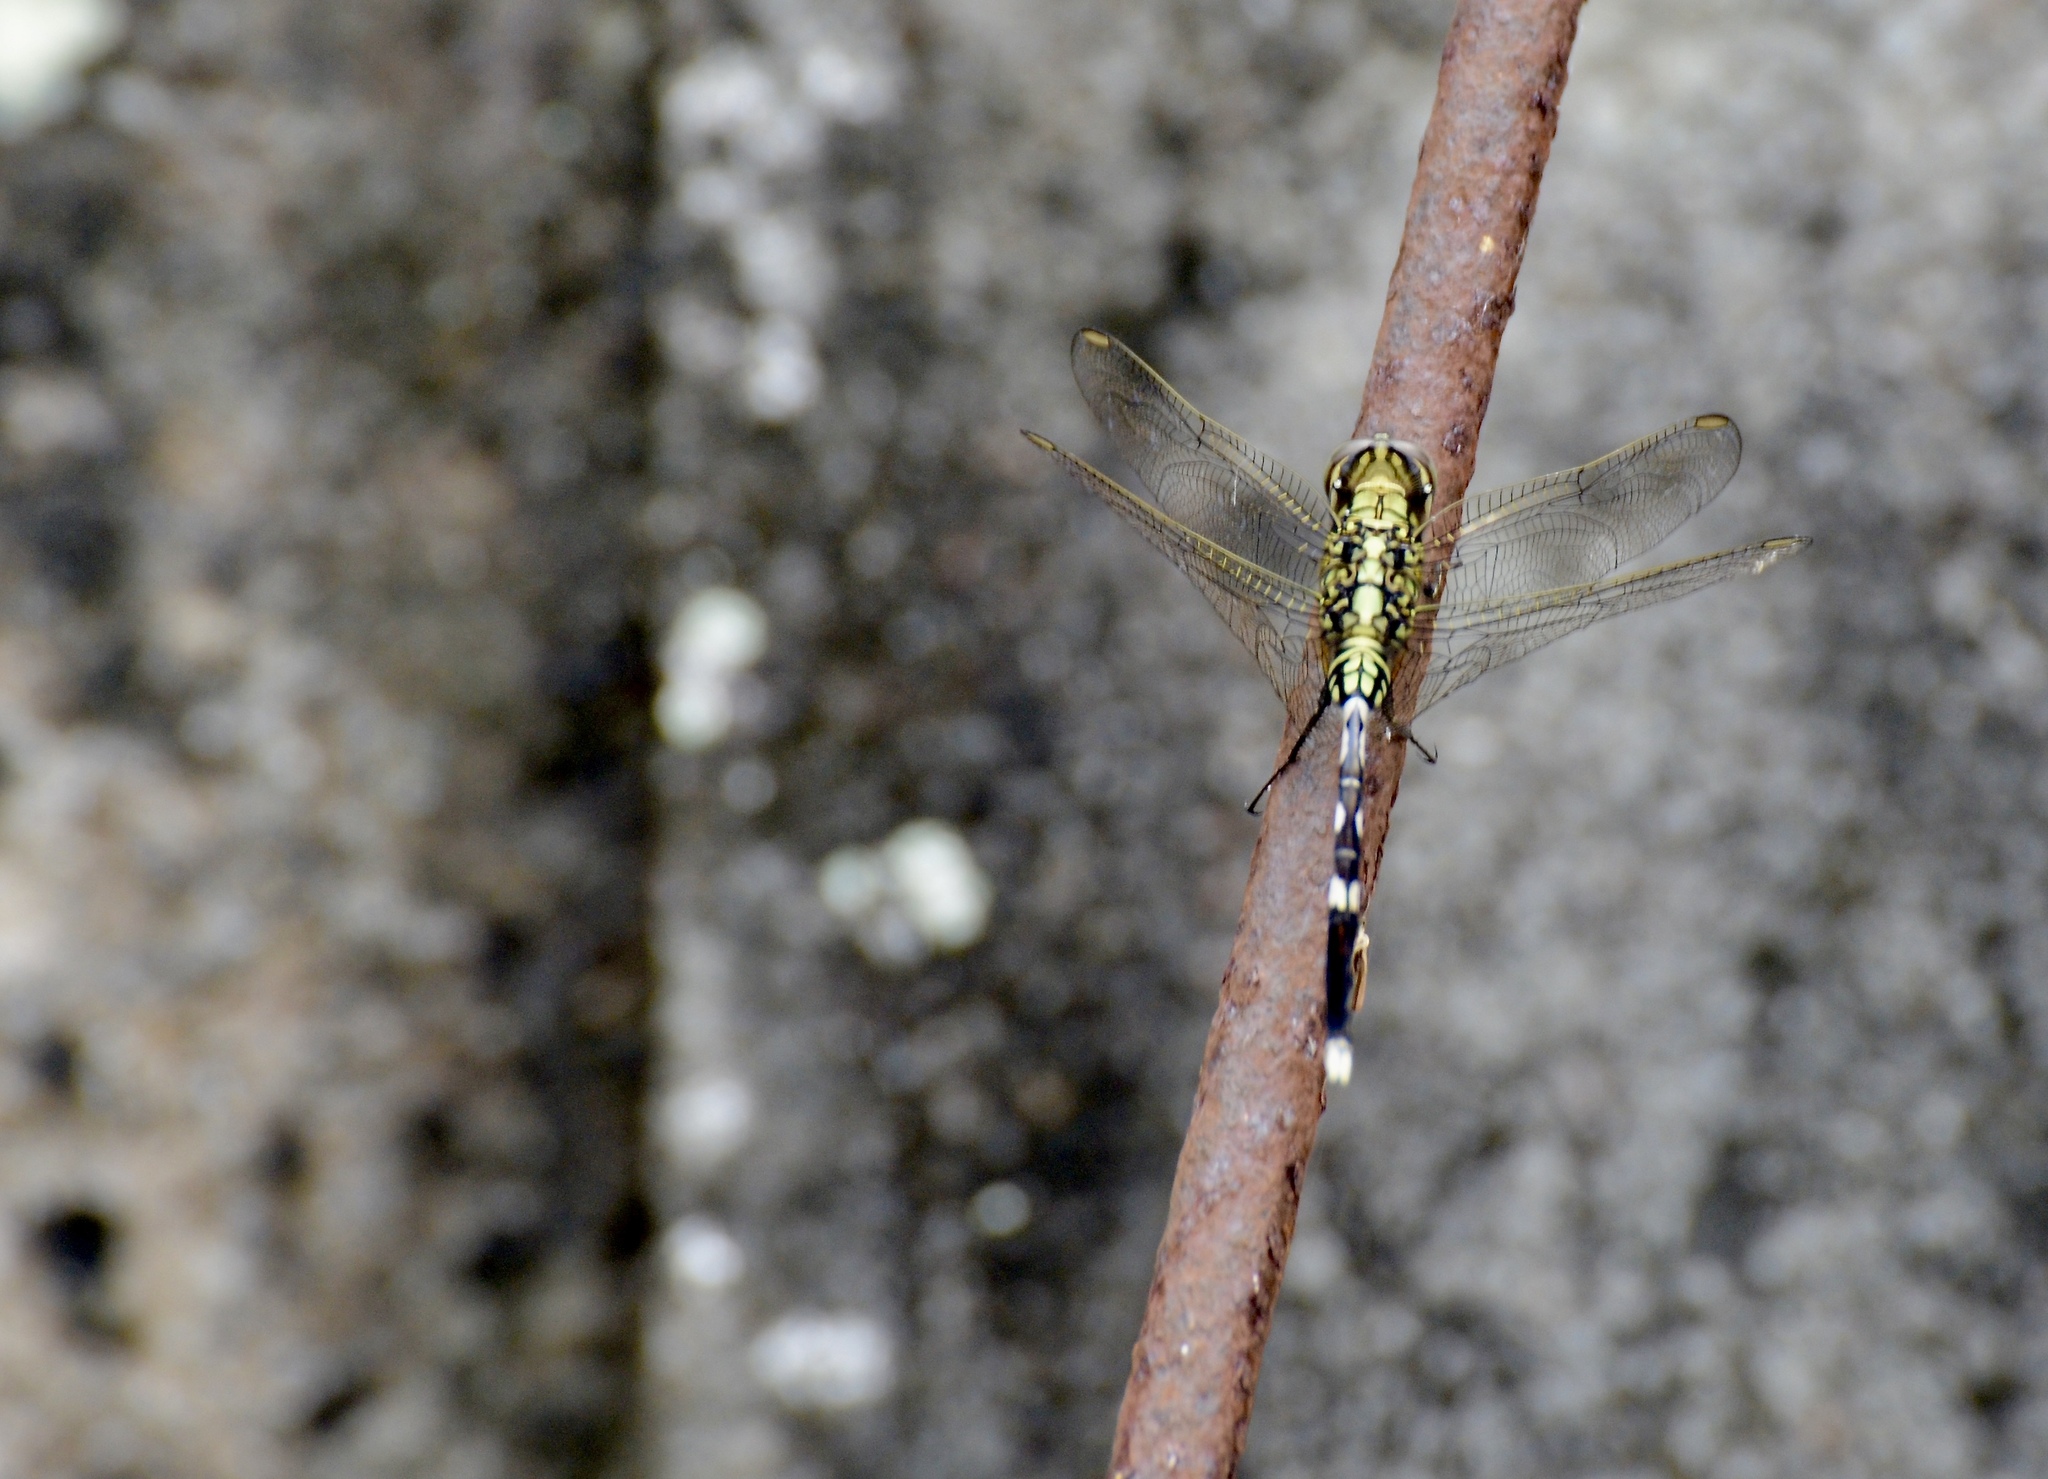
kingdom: Animalia
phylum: Arthropoda
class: Insecta
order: Odonata
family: Libellulidae
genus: Orthetrum
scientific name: Orthetrum sabina
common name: Slender skimmer
